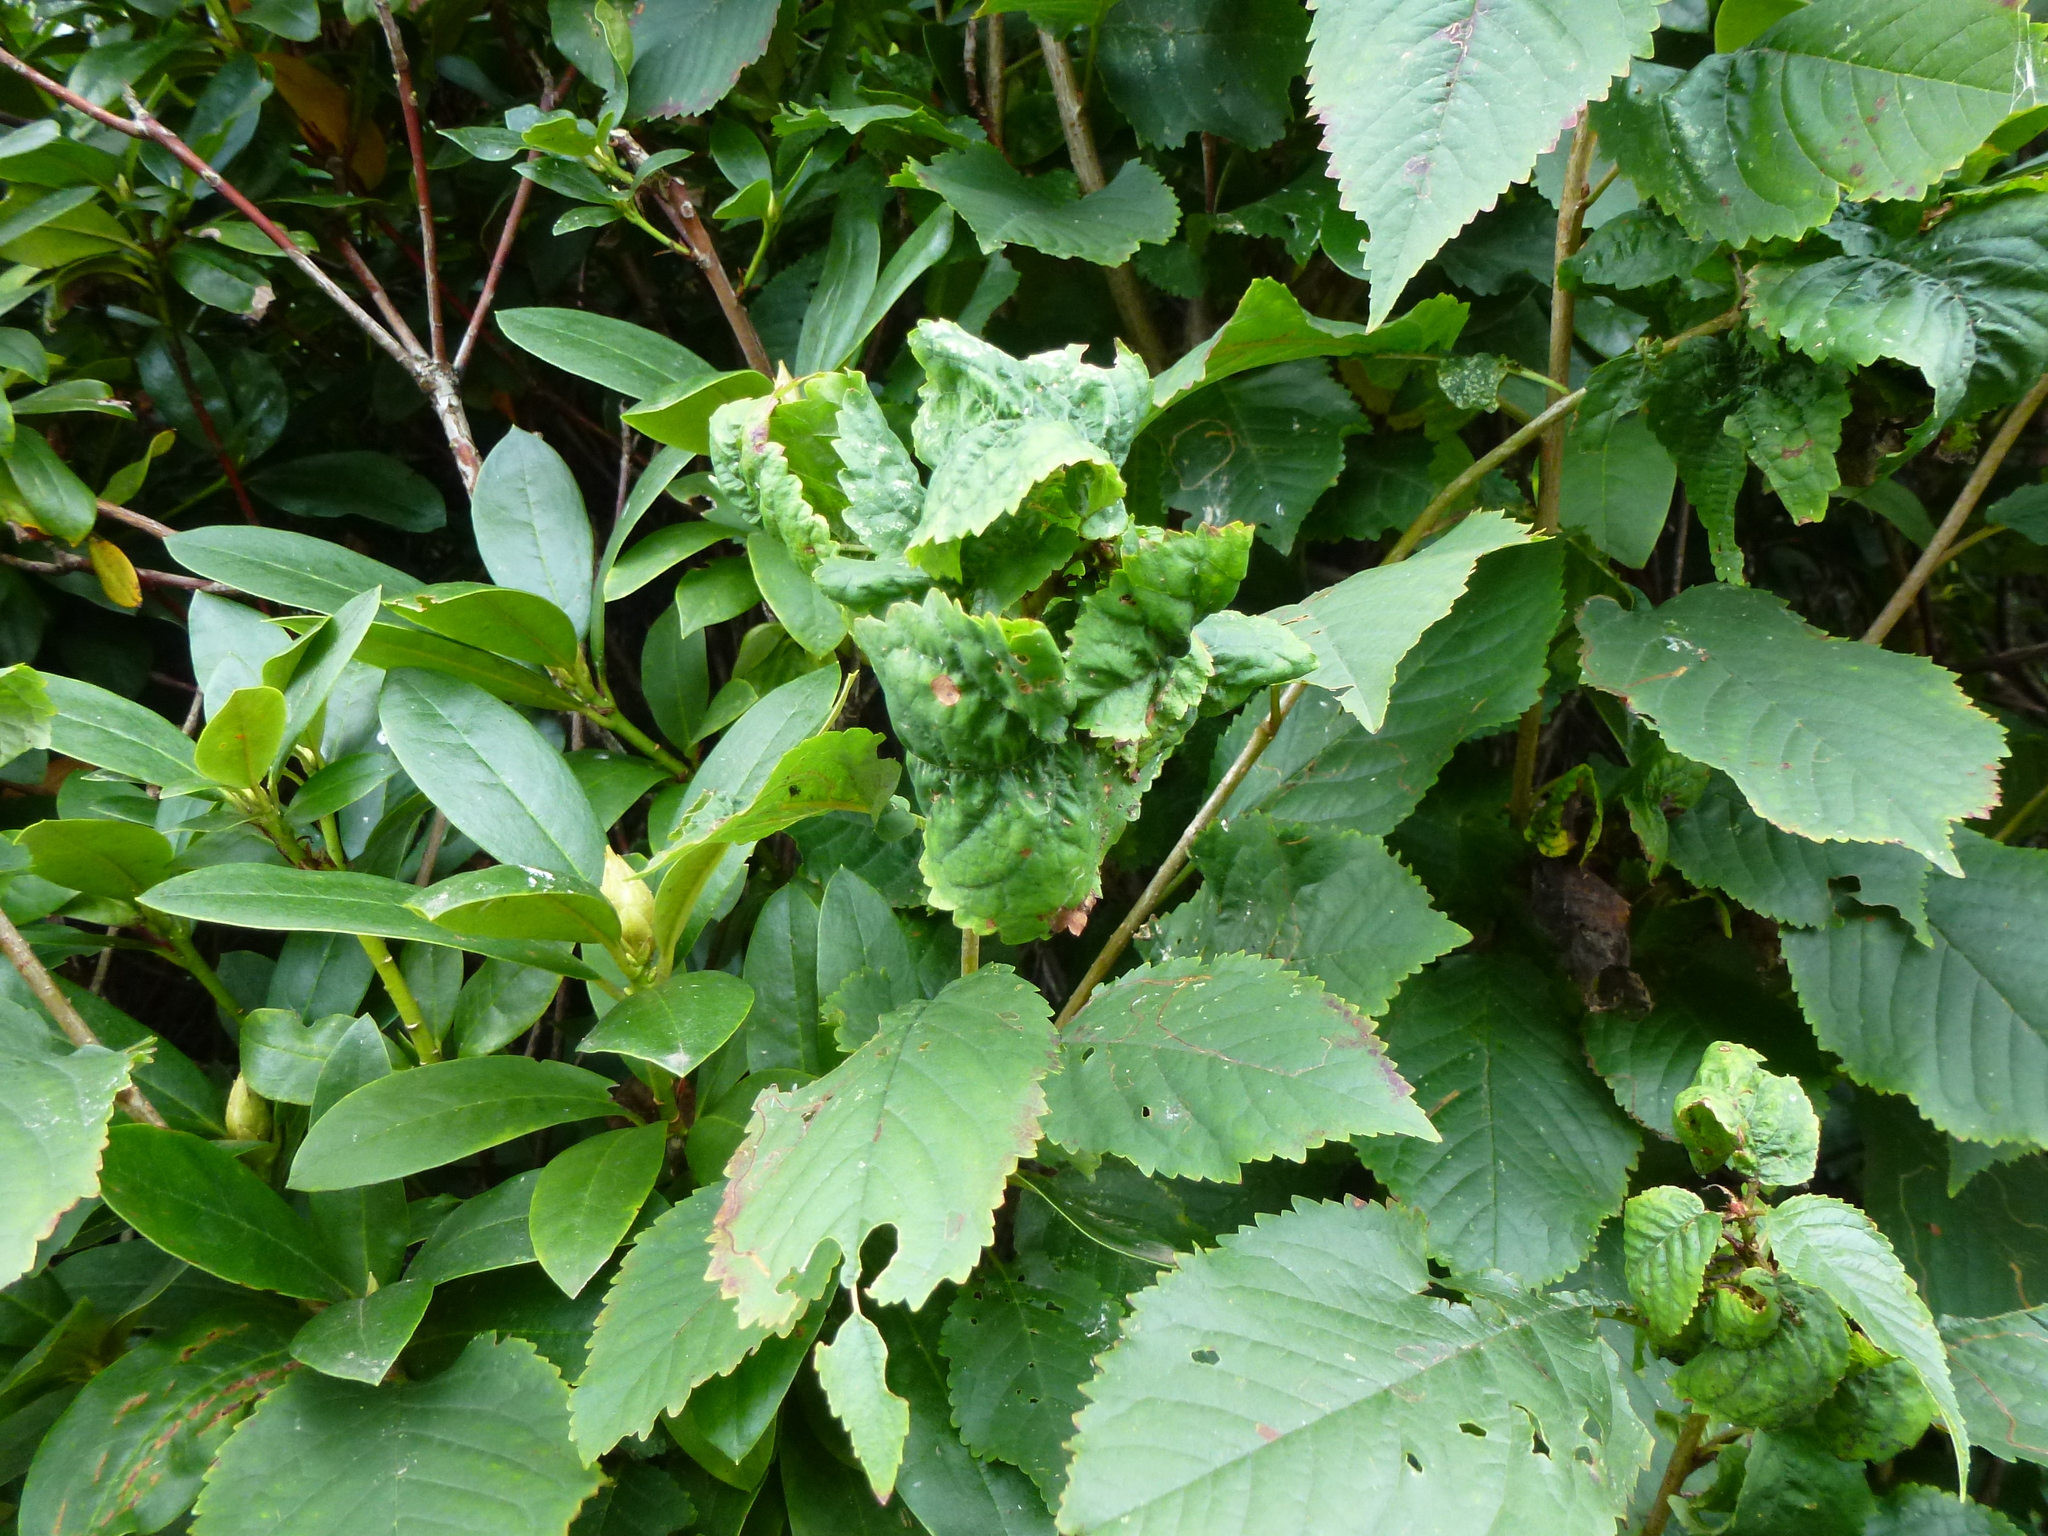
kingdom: Animalia
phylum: Arthropoda
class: Insecta
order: Hemiptera
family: Aphididae
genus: Myzus
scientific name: Myzus cerasi
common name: Black cherry aphid
